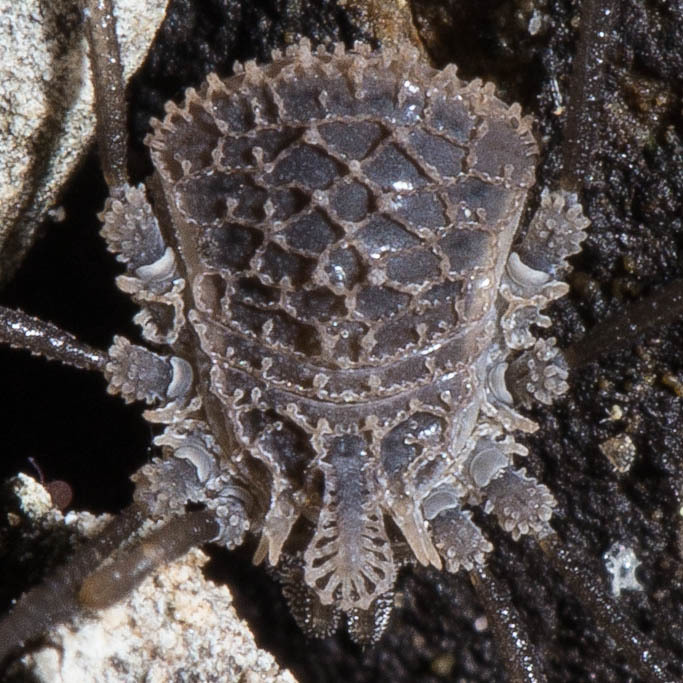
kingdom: Animalia
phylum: Arthropoda
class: Arachnida
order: Opiliones
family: Nemastomatidae
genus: Ortholasma
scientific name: Ortholasma rugosum
